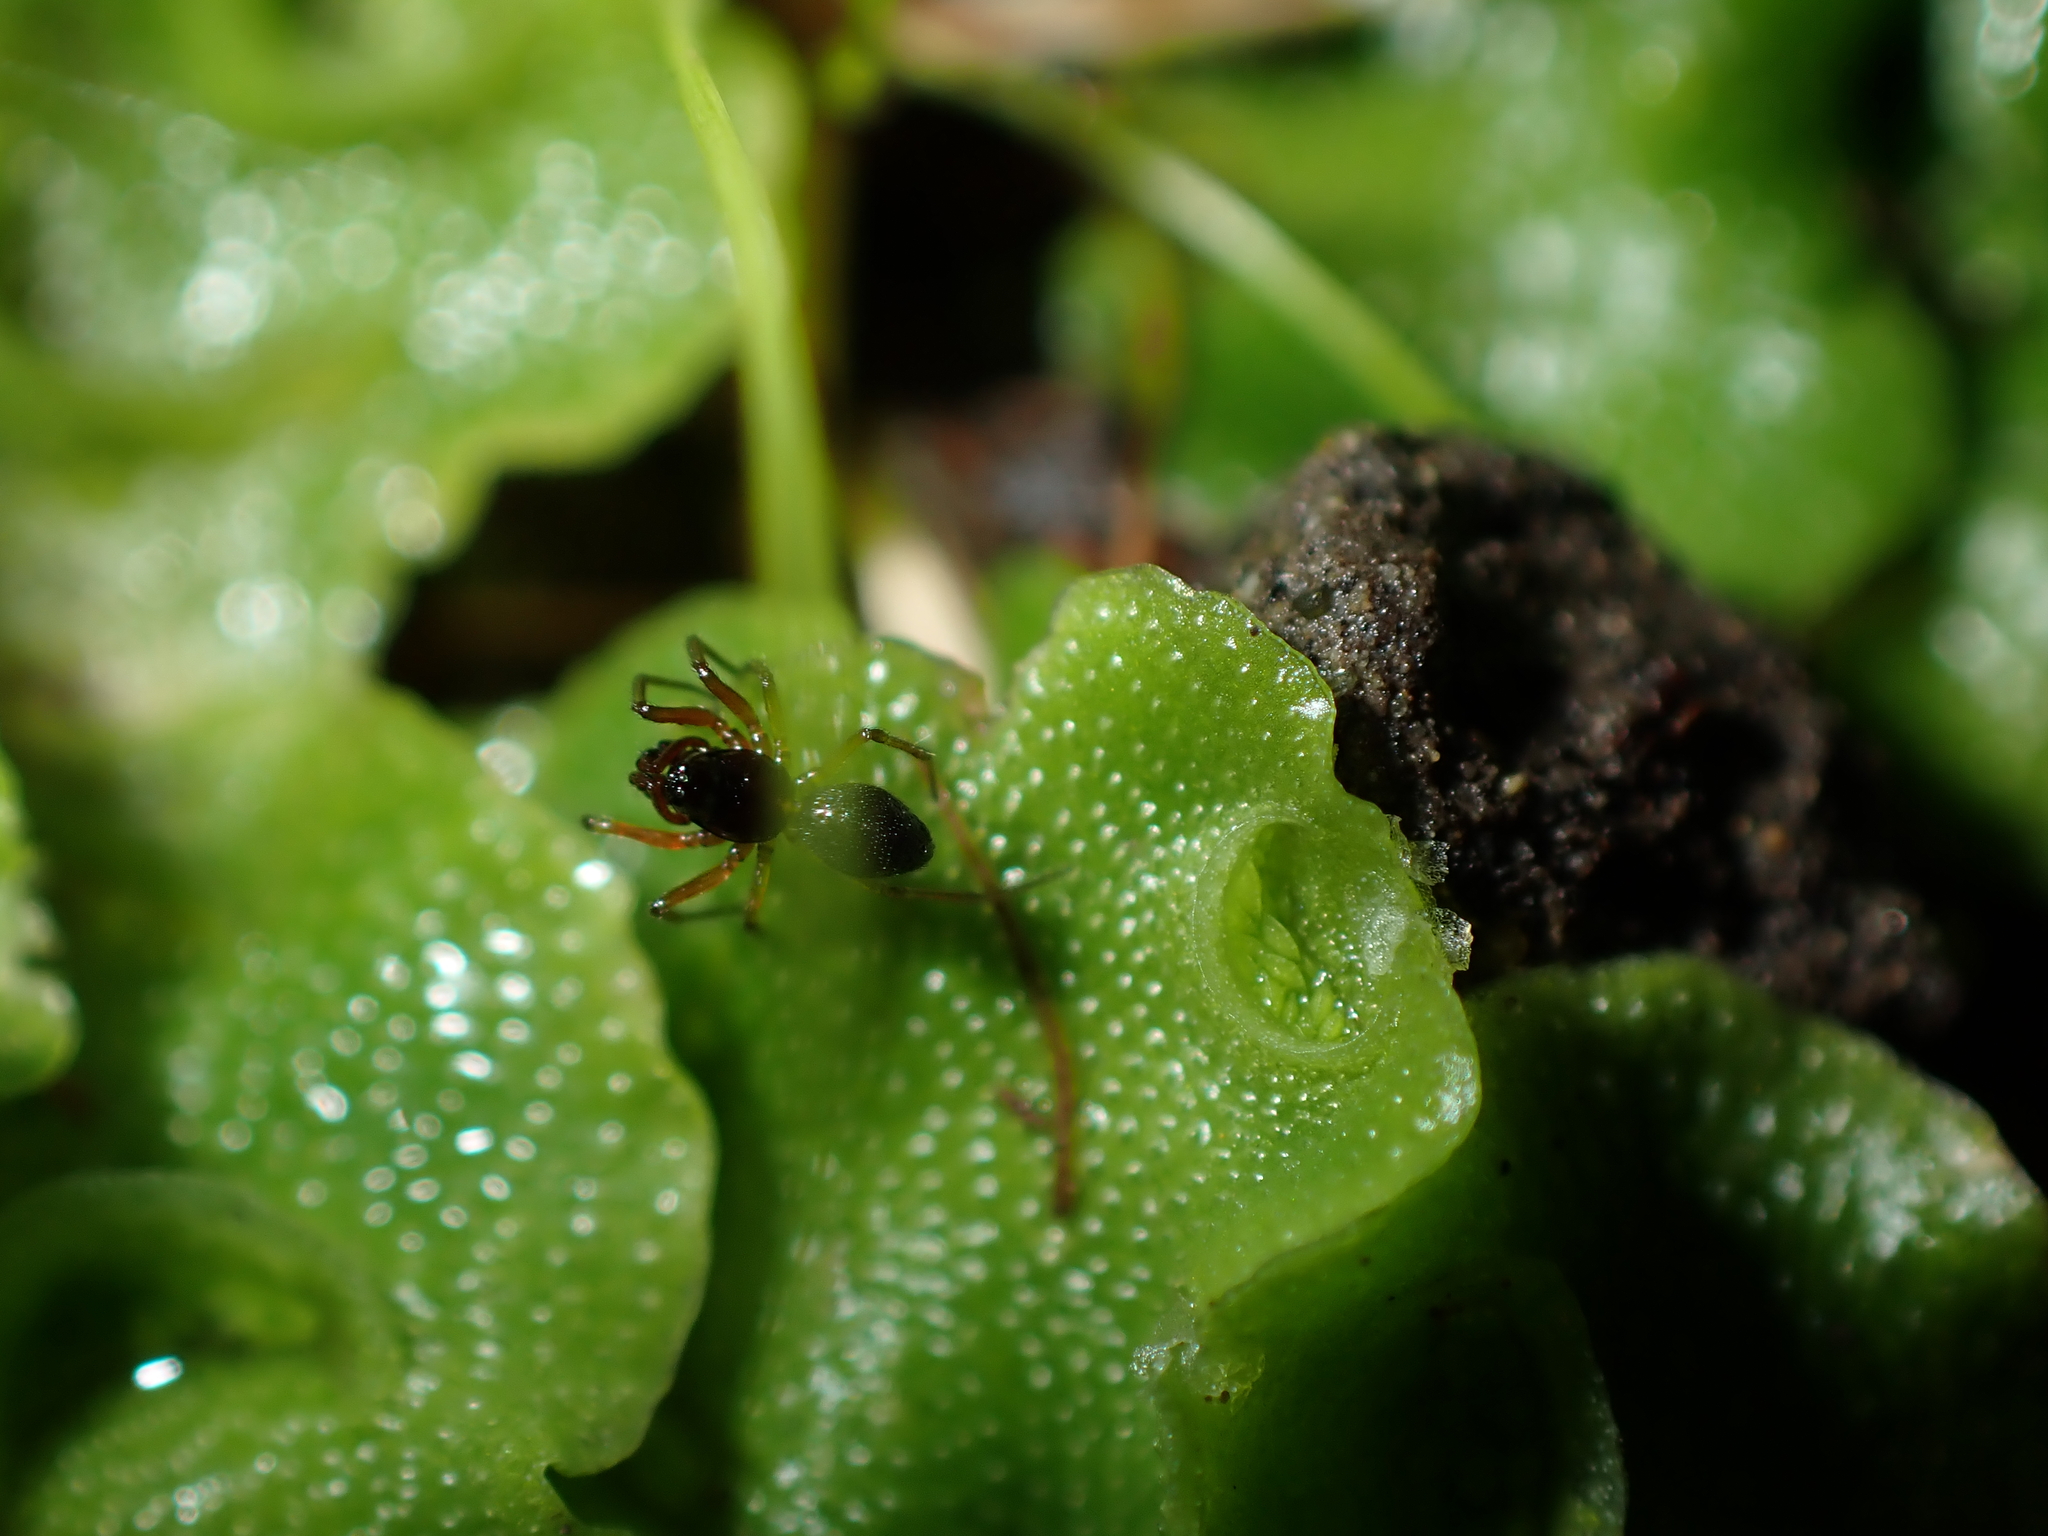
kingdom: Animalia
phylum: Arthropoda
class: Arachnida
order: Araneae
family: Linyphiidae
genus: Erigone
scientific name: Erigone prominens
